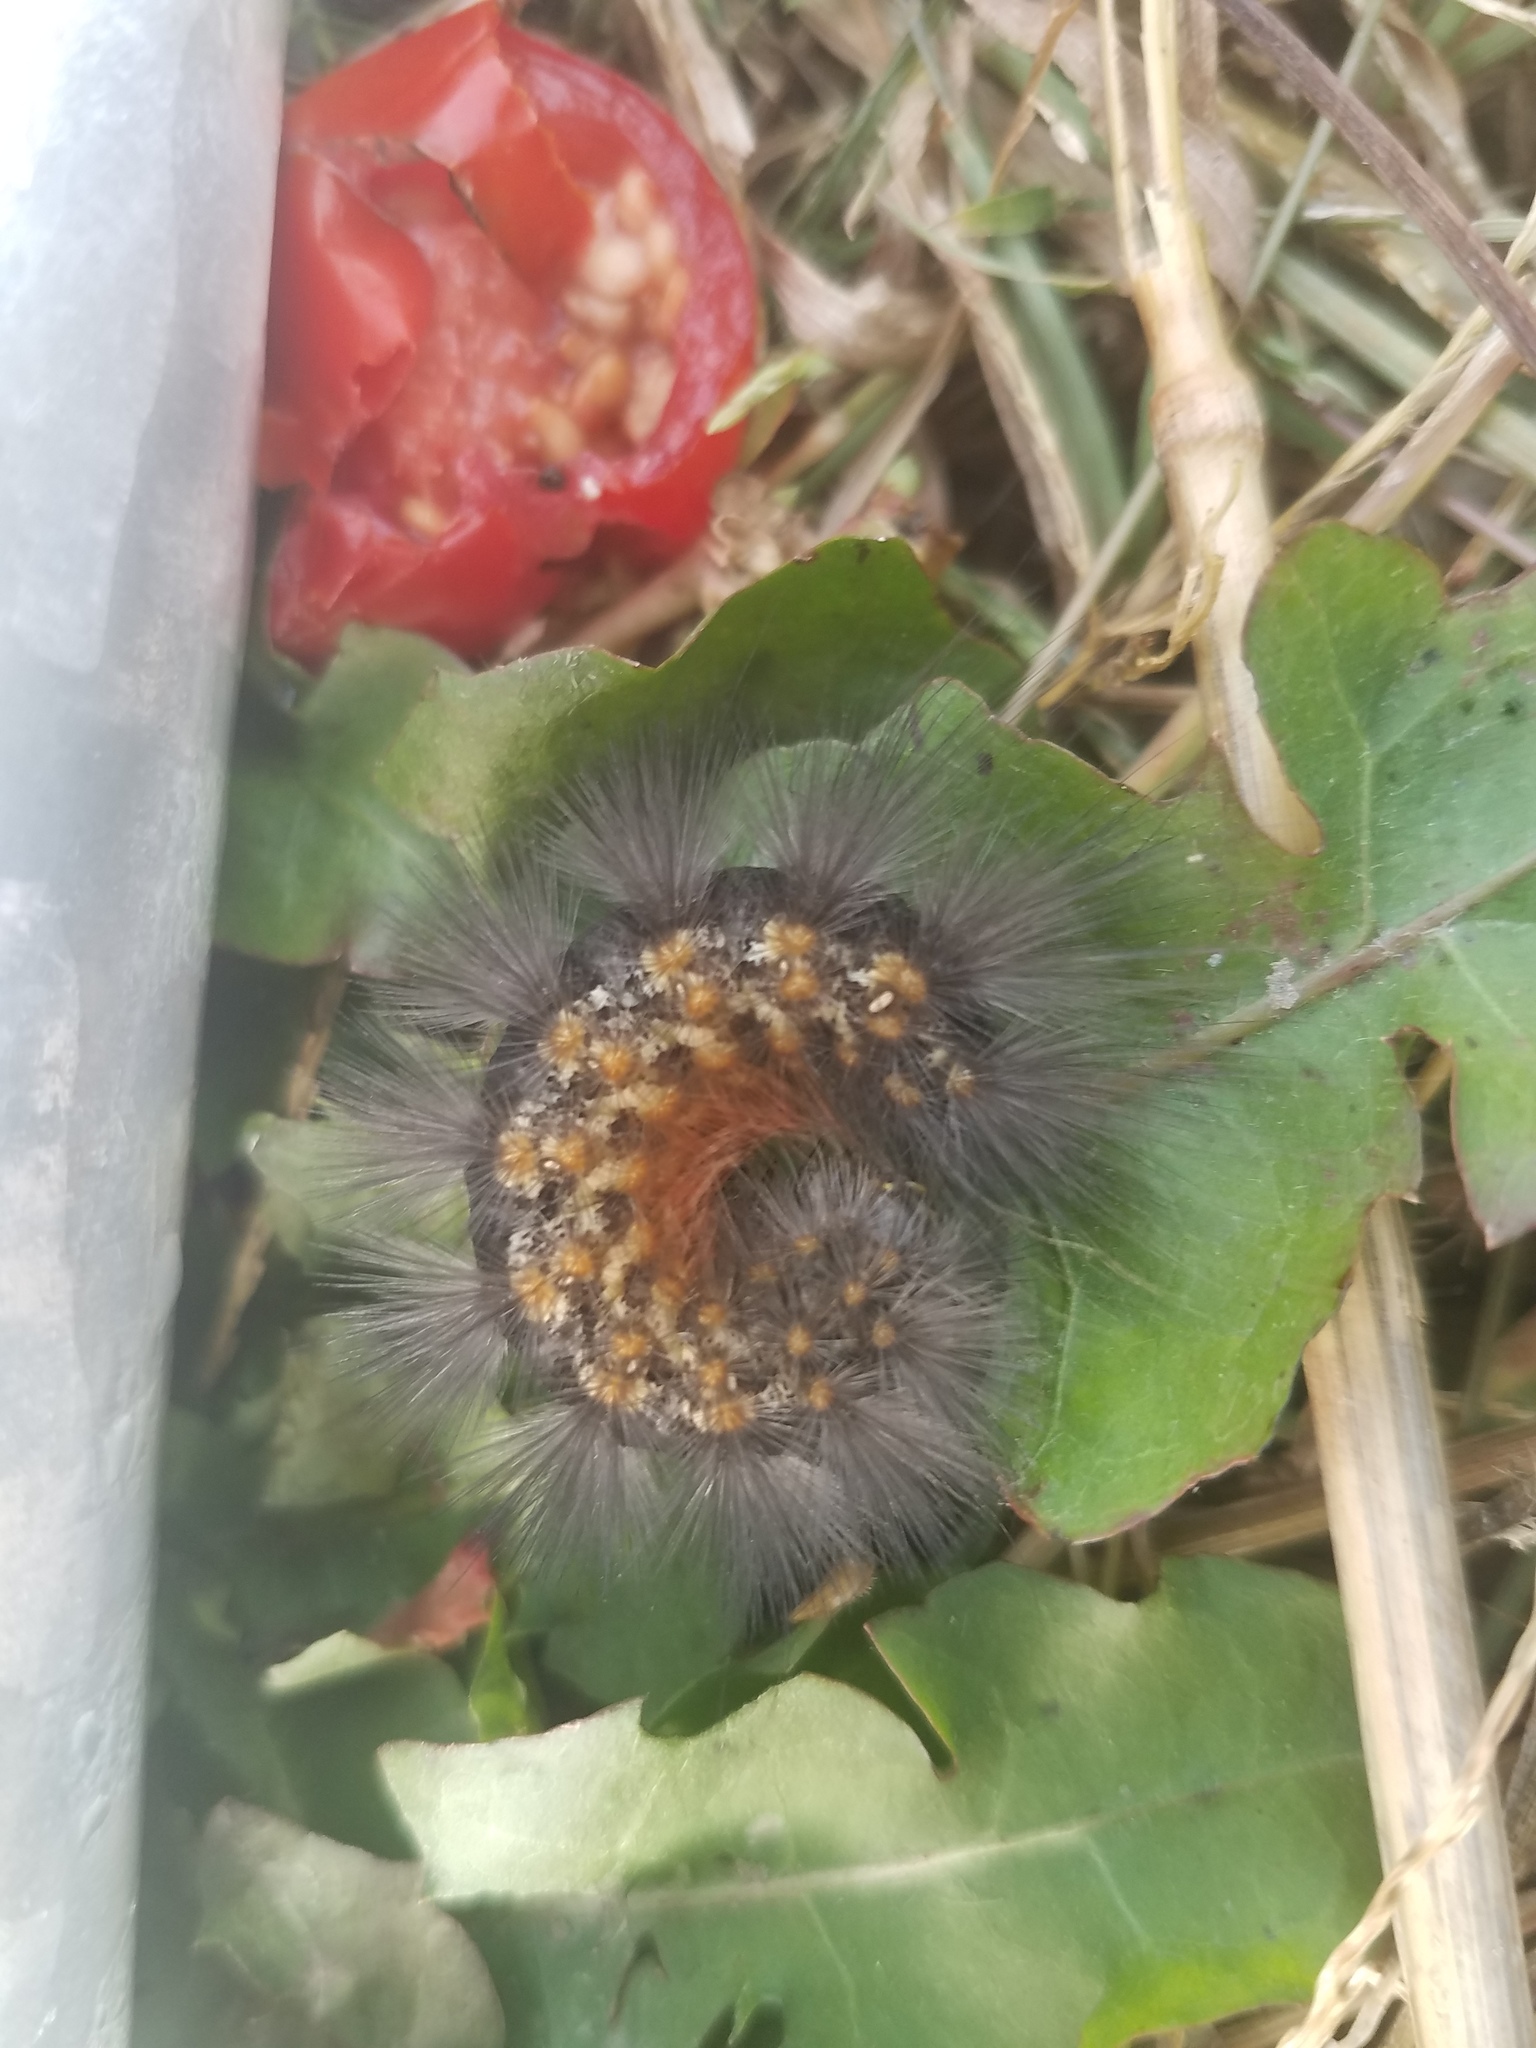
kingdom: Animalia
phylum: Arthropoda
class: Insecta
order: Lepidoptera
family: Erebidae
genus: Estigmene
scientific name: Estigmene acrea
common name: Salt marsh moth
